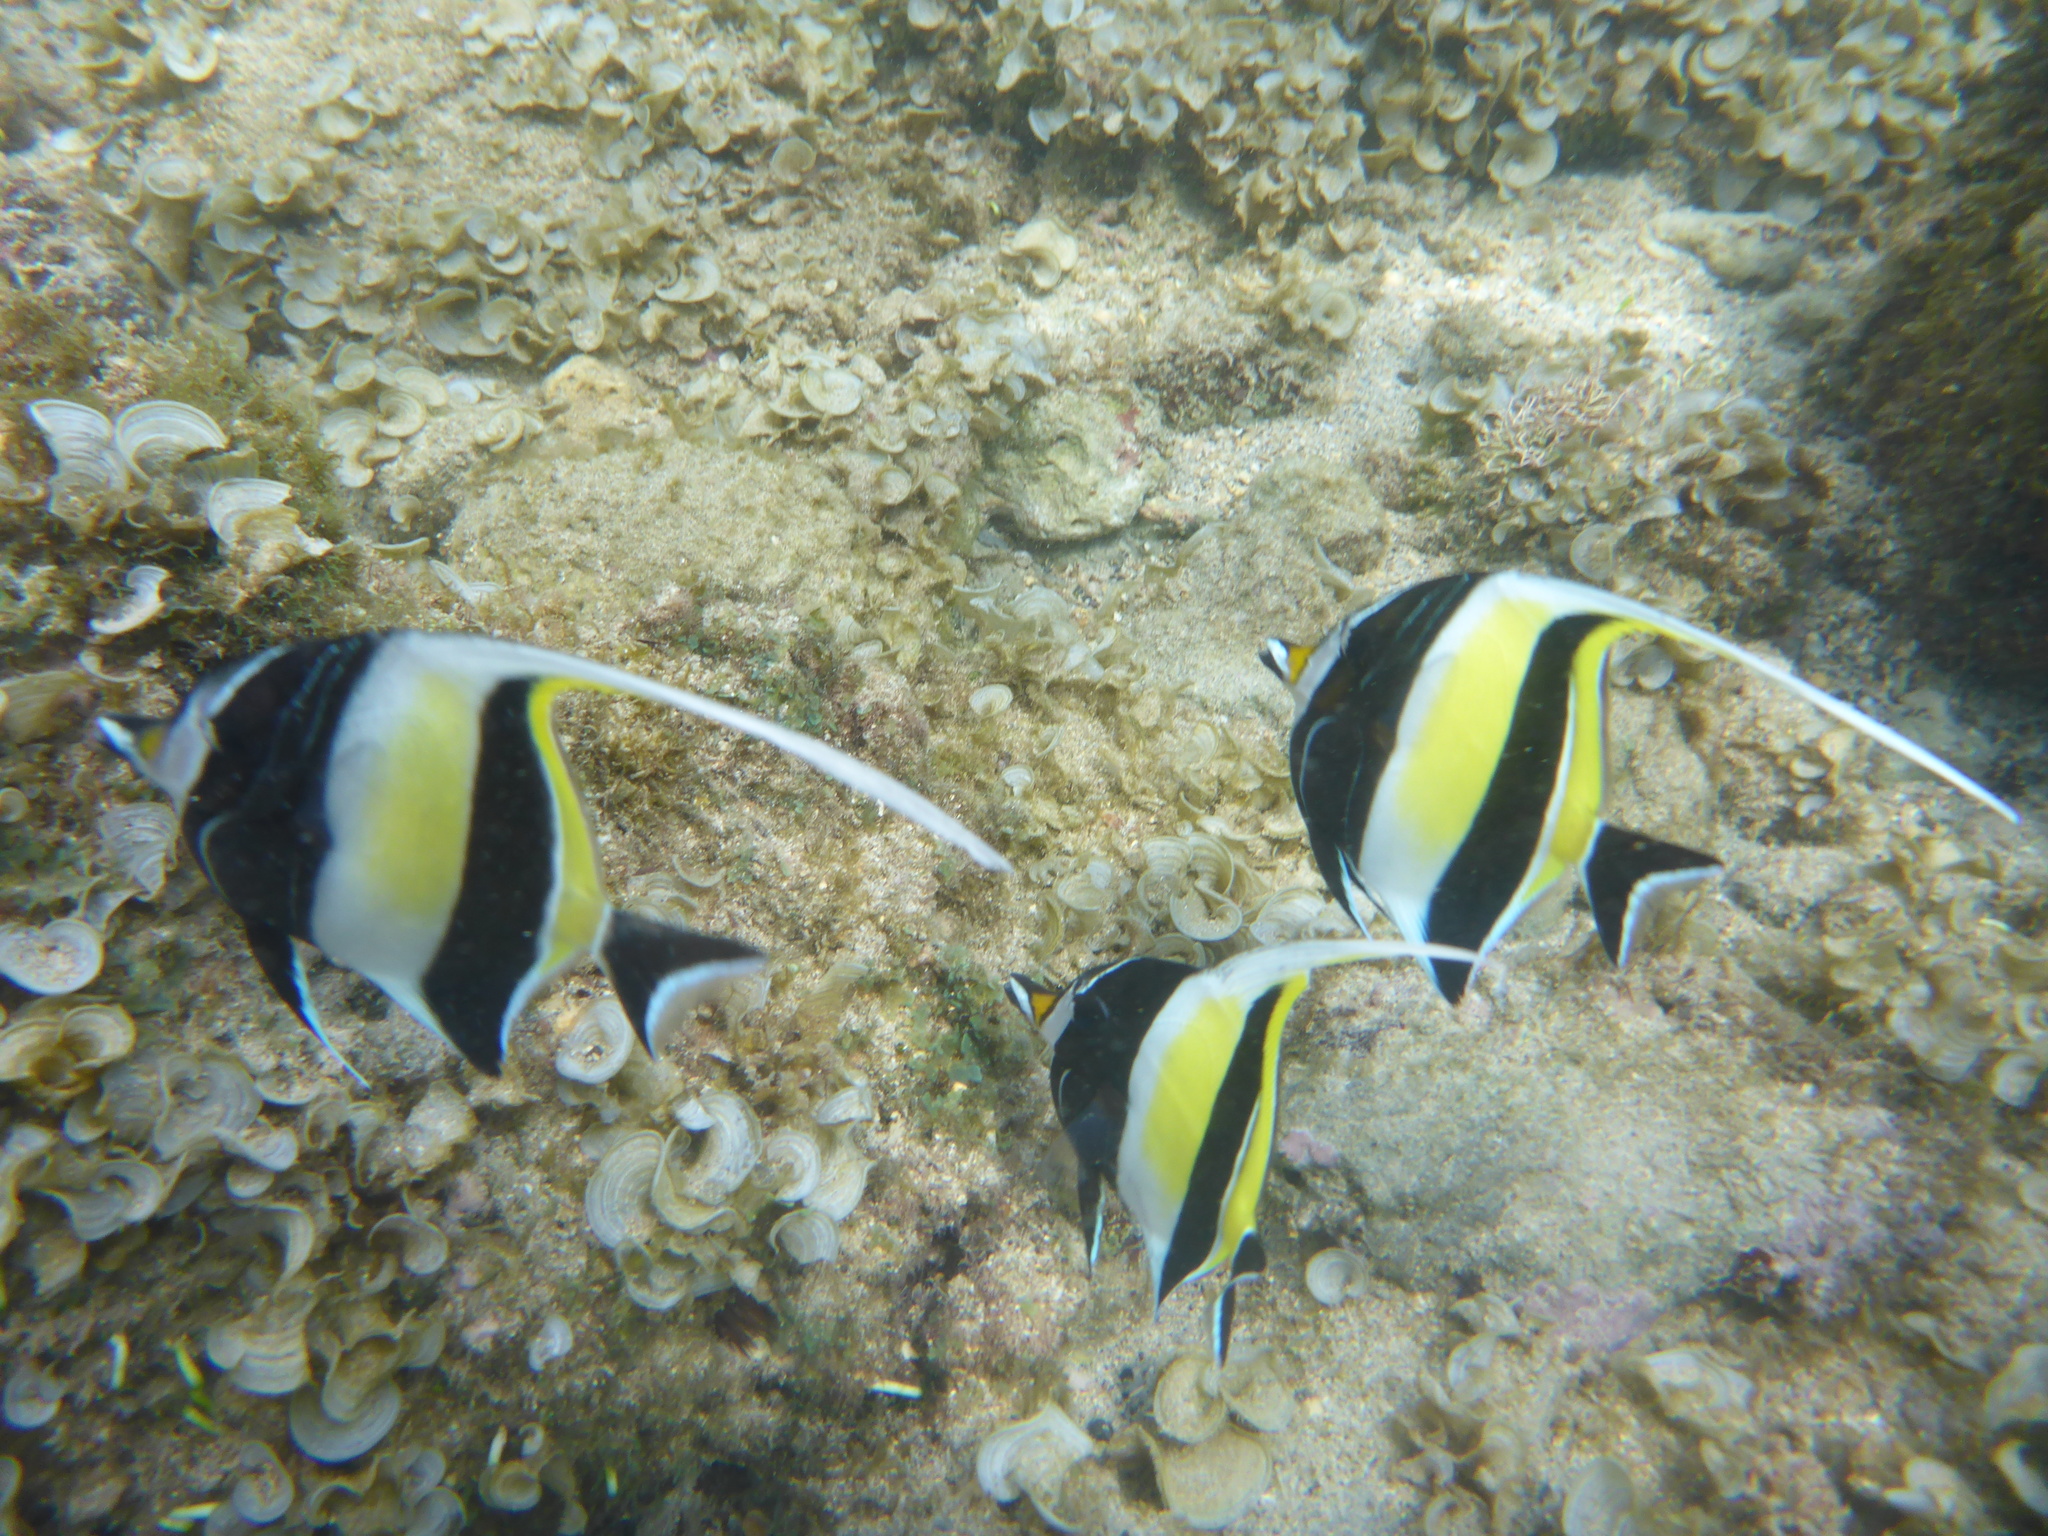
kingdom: Animalia
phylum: Chordata
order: Perciformes
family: Zanclidae
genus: Zanclus
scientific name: Zanclus cornutus
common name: Moorish idol
